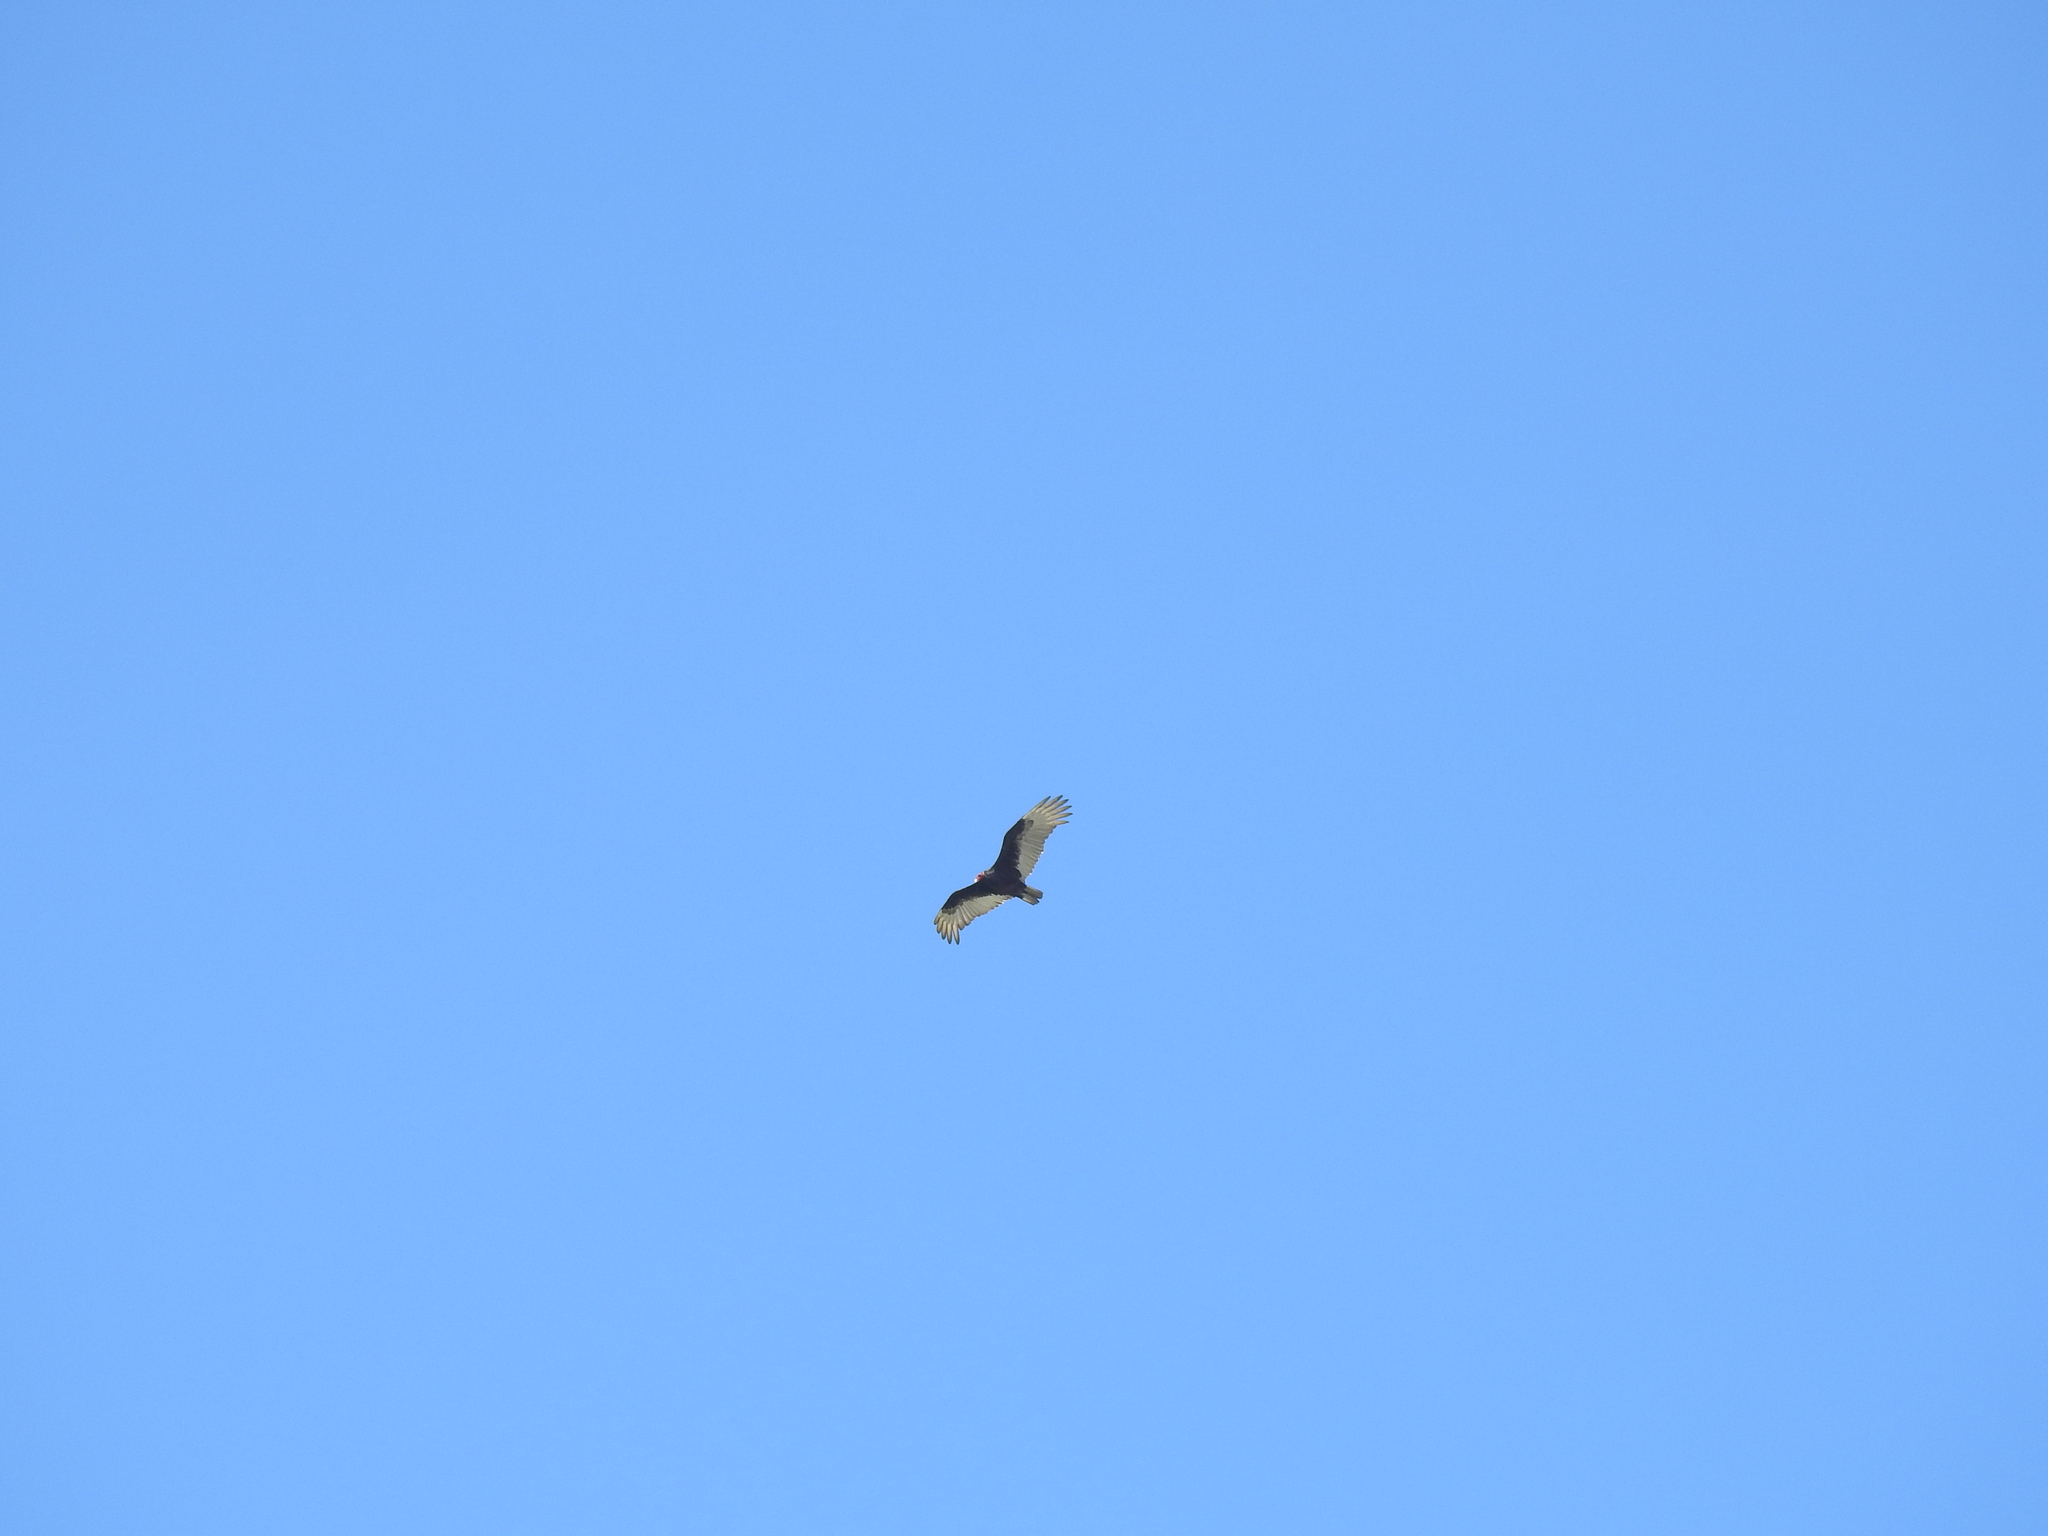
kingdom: Animalia
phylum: Chordata
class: Aves
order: Accipitriformes
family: Cathartidae
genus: Cathartes
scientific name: Cathartes aura
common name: Turkey vulture
